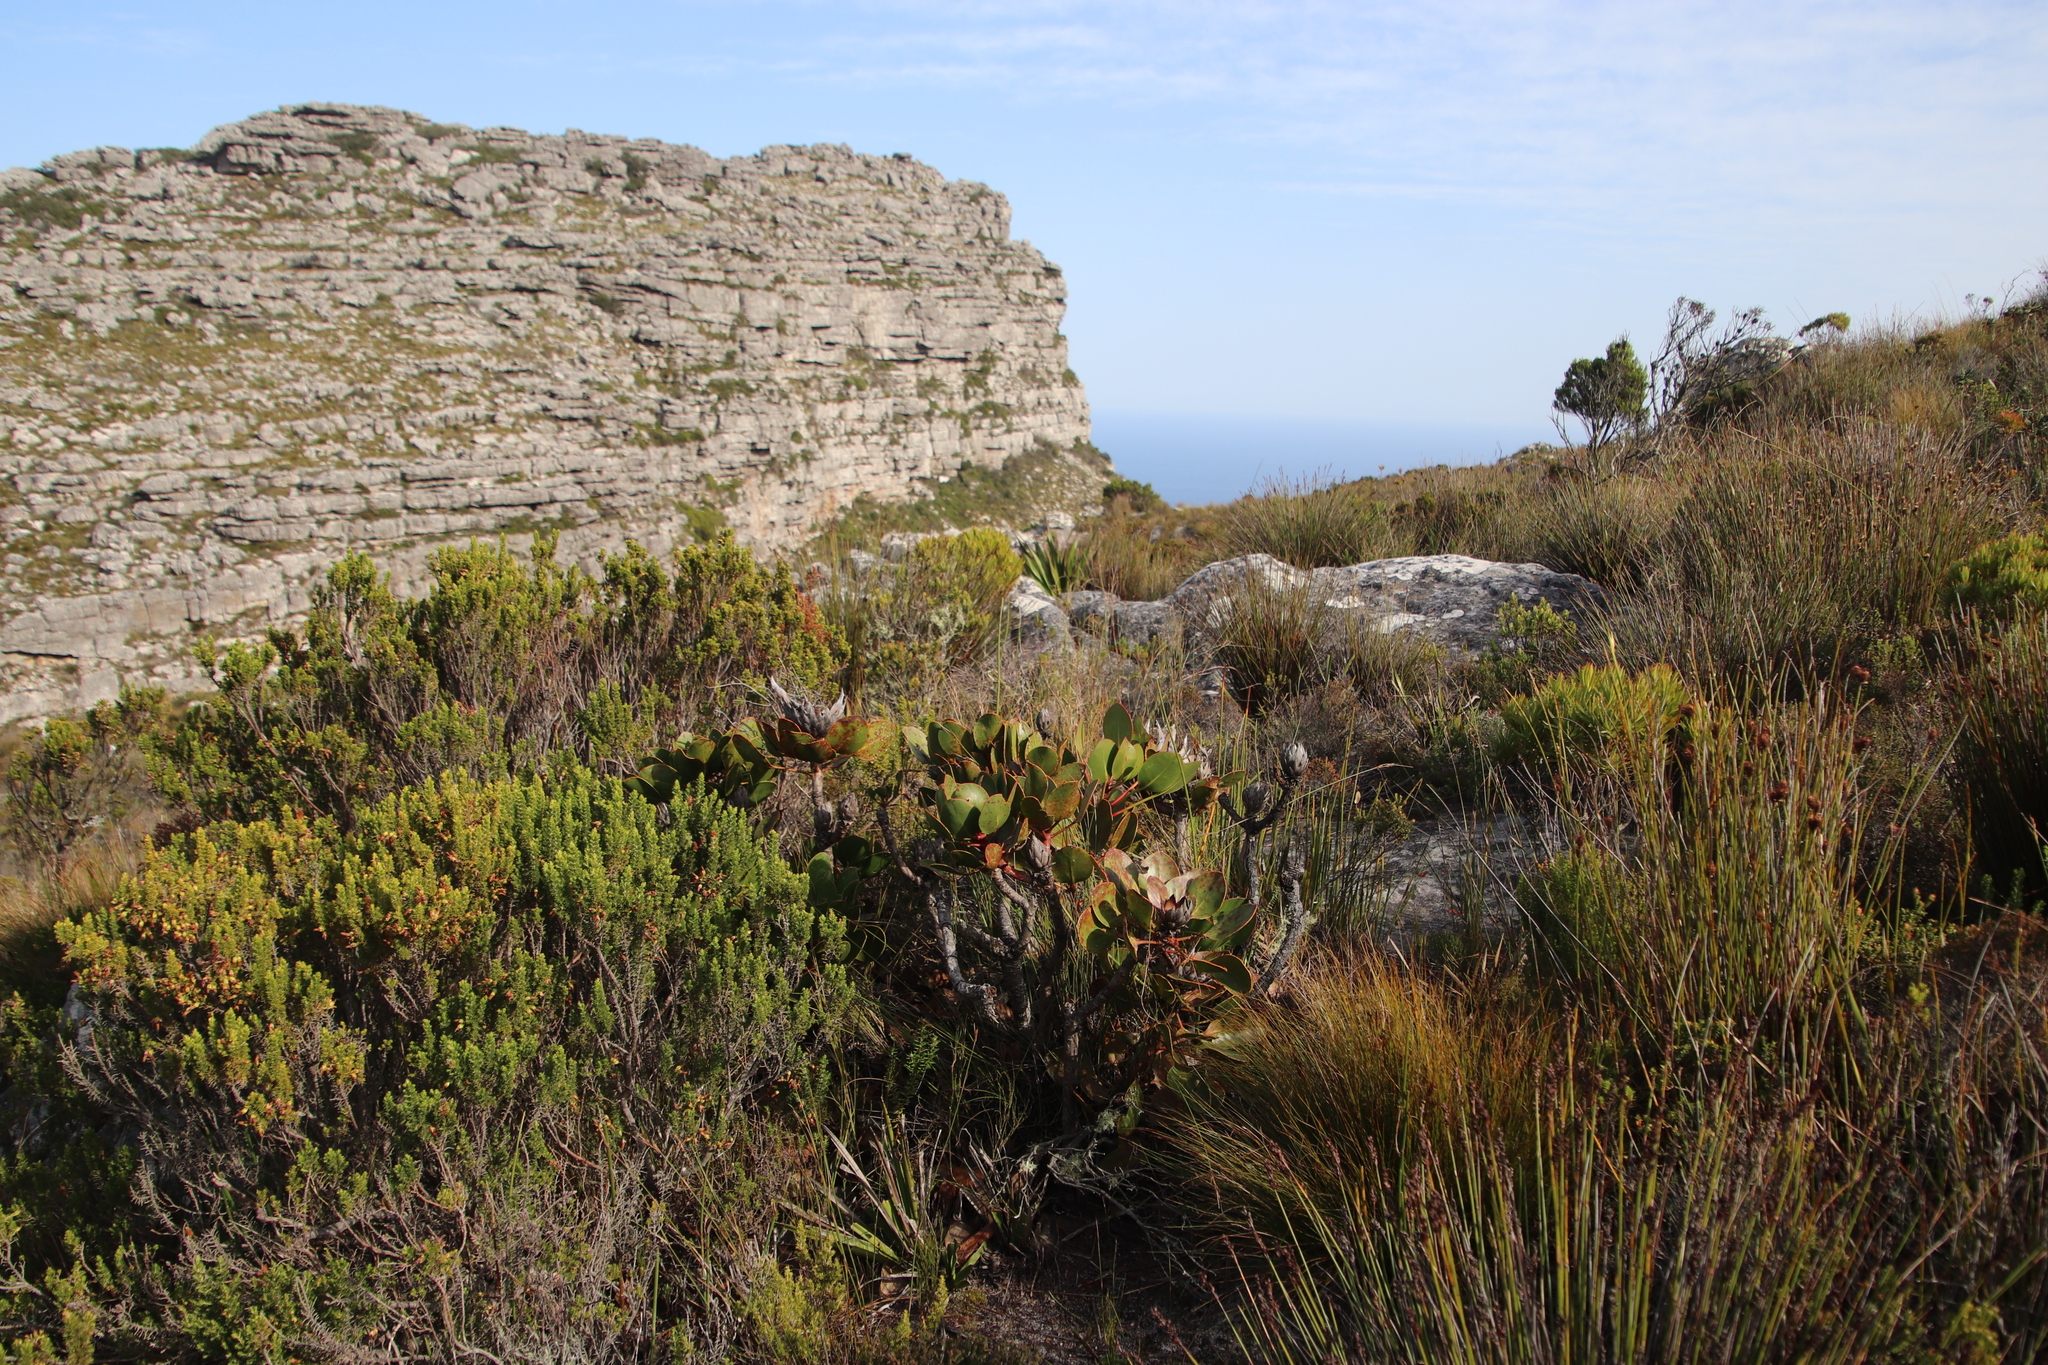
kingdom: Plantae
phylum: Tracheophyta
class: Magnoliopsida
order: Proteales
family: Proteaceae
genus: Protea
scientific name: Protea cynaroides
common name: King protea
